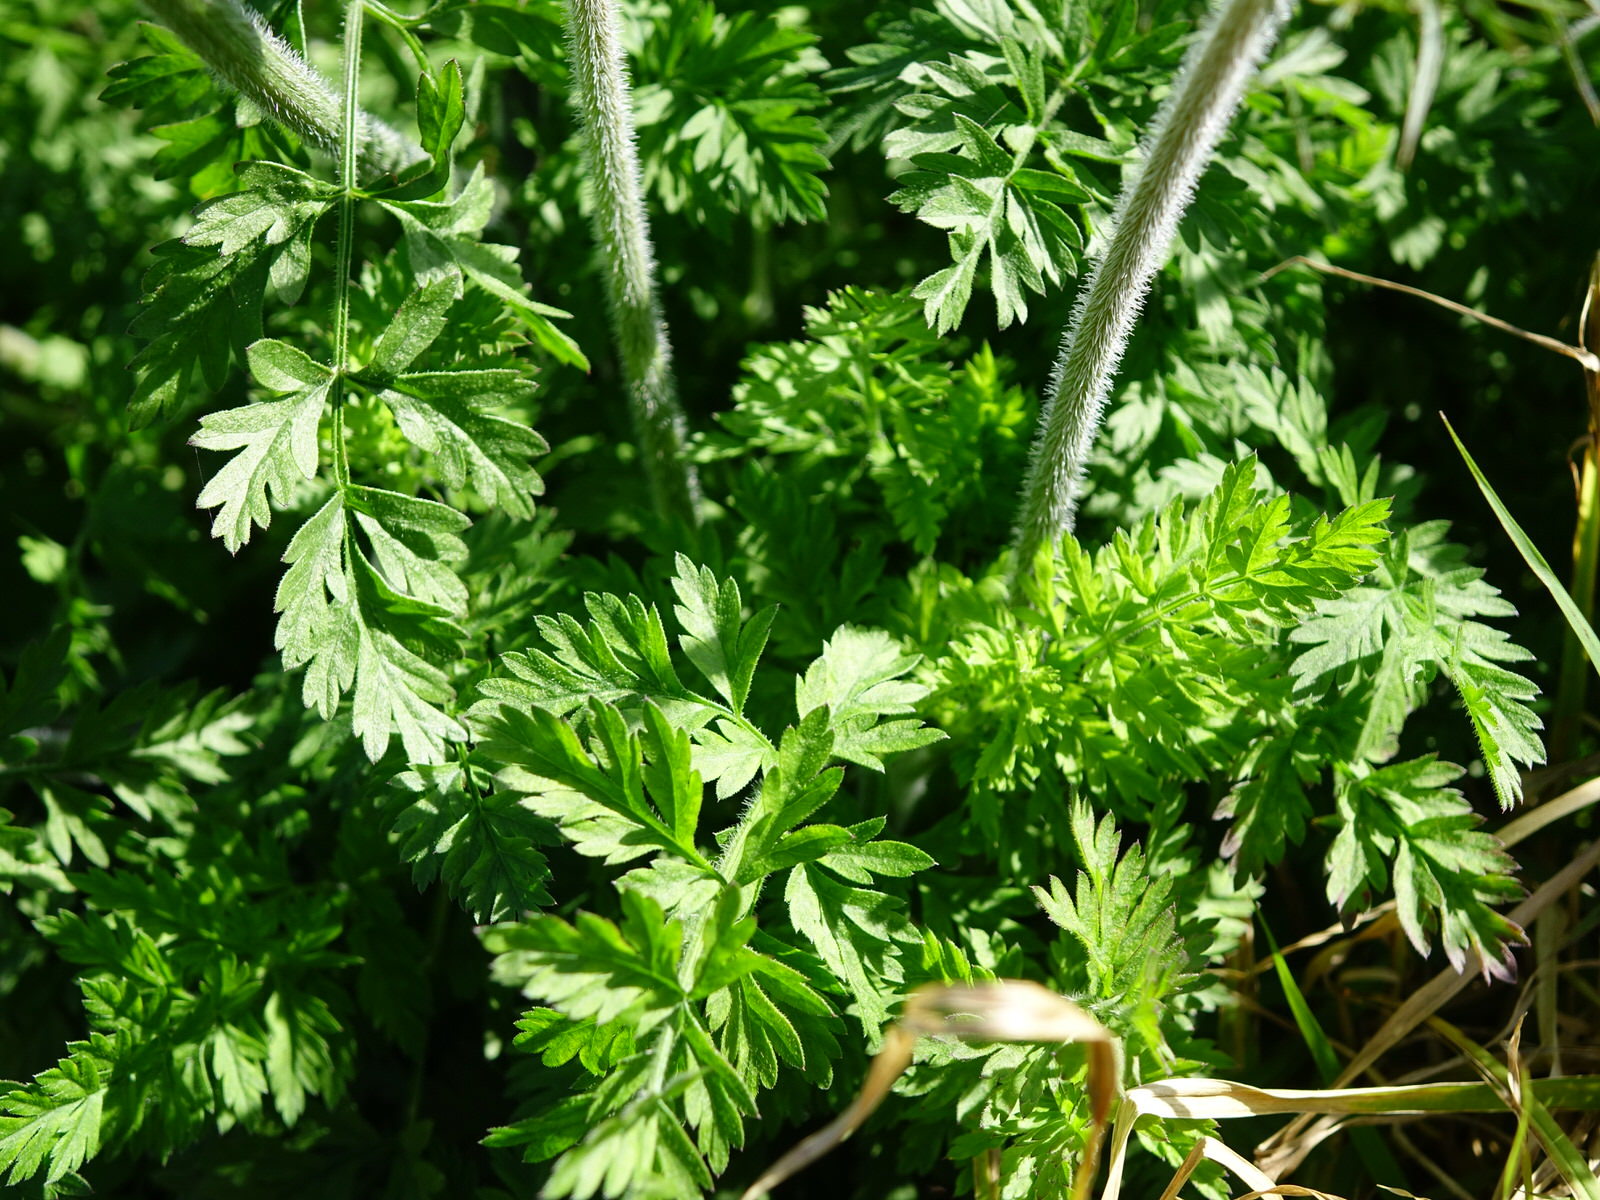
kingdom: Plantae
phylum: Tracheophyta
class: Magnoliopsida
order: Apiales
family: Apiaceae
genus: Daucus
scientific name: Daucus carota
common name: Wild carrot
